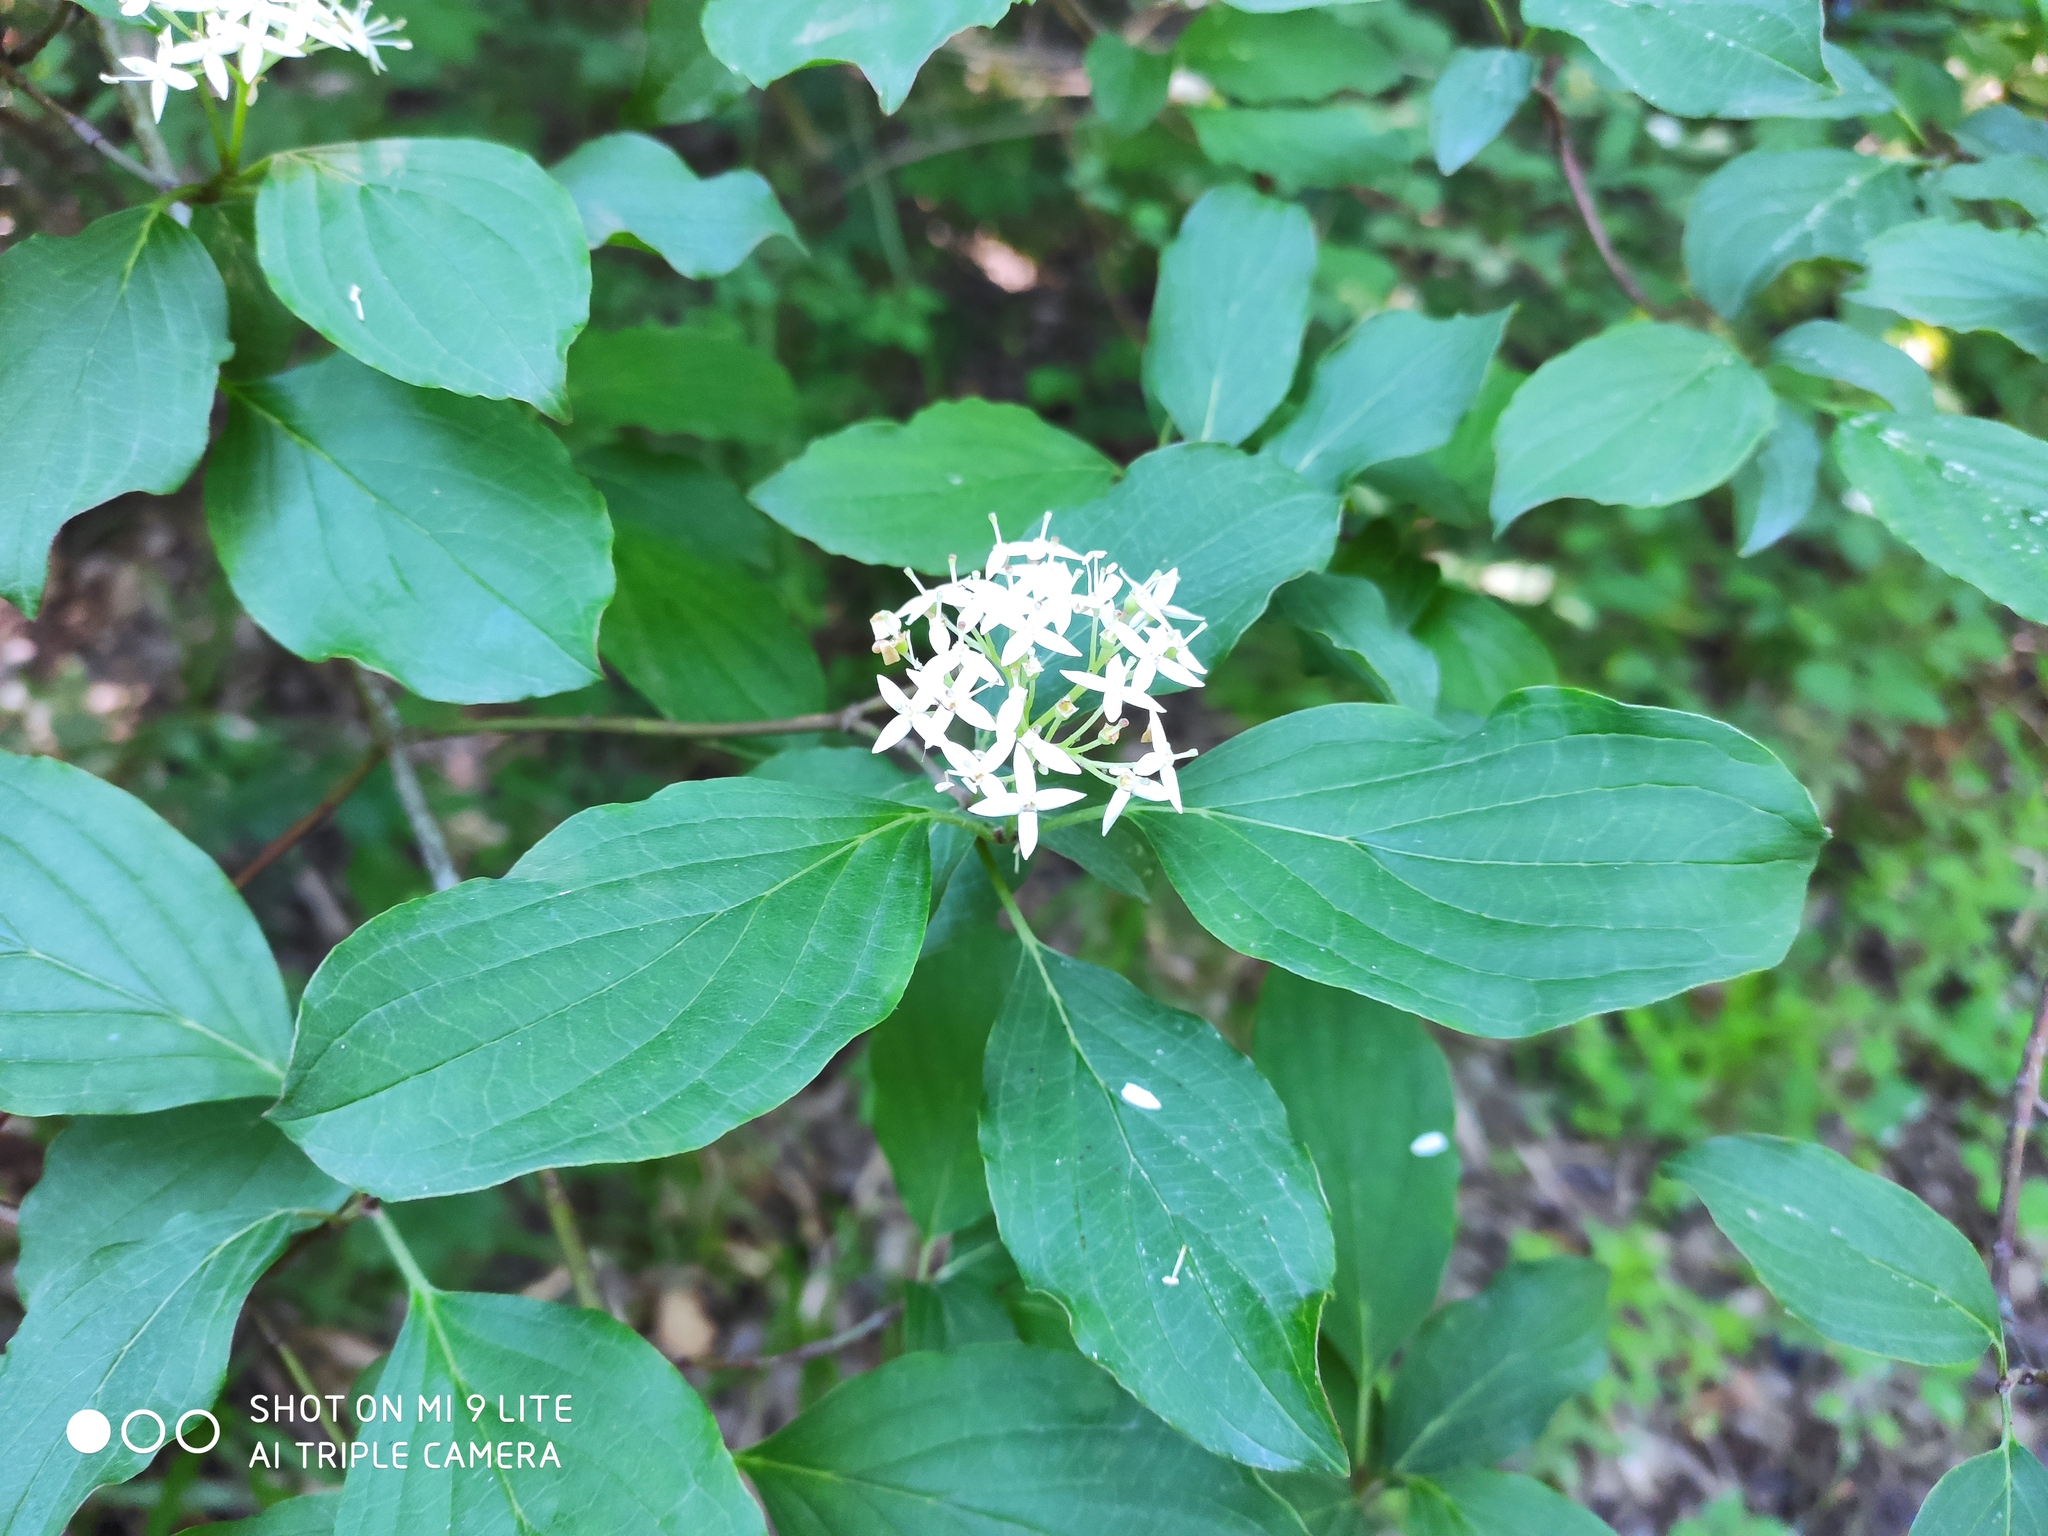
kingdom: Plantae
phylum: Tracheophyta
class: Magnoliopsida
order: Cornales
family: Cornaceae
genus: Cornus
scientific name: Cornus sanguinea
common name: Dogwood
